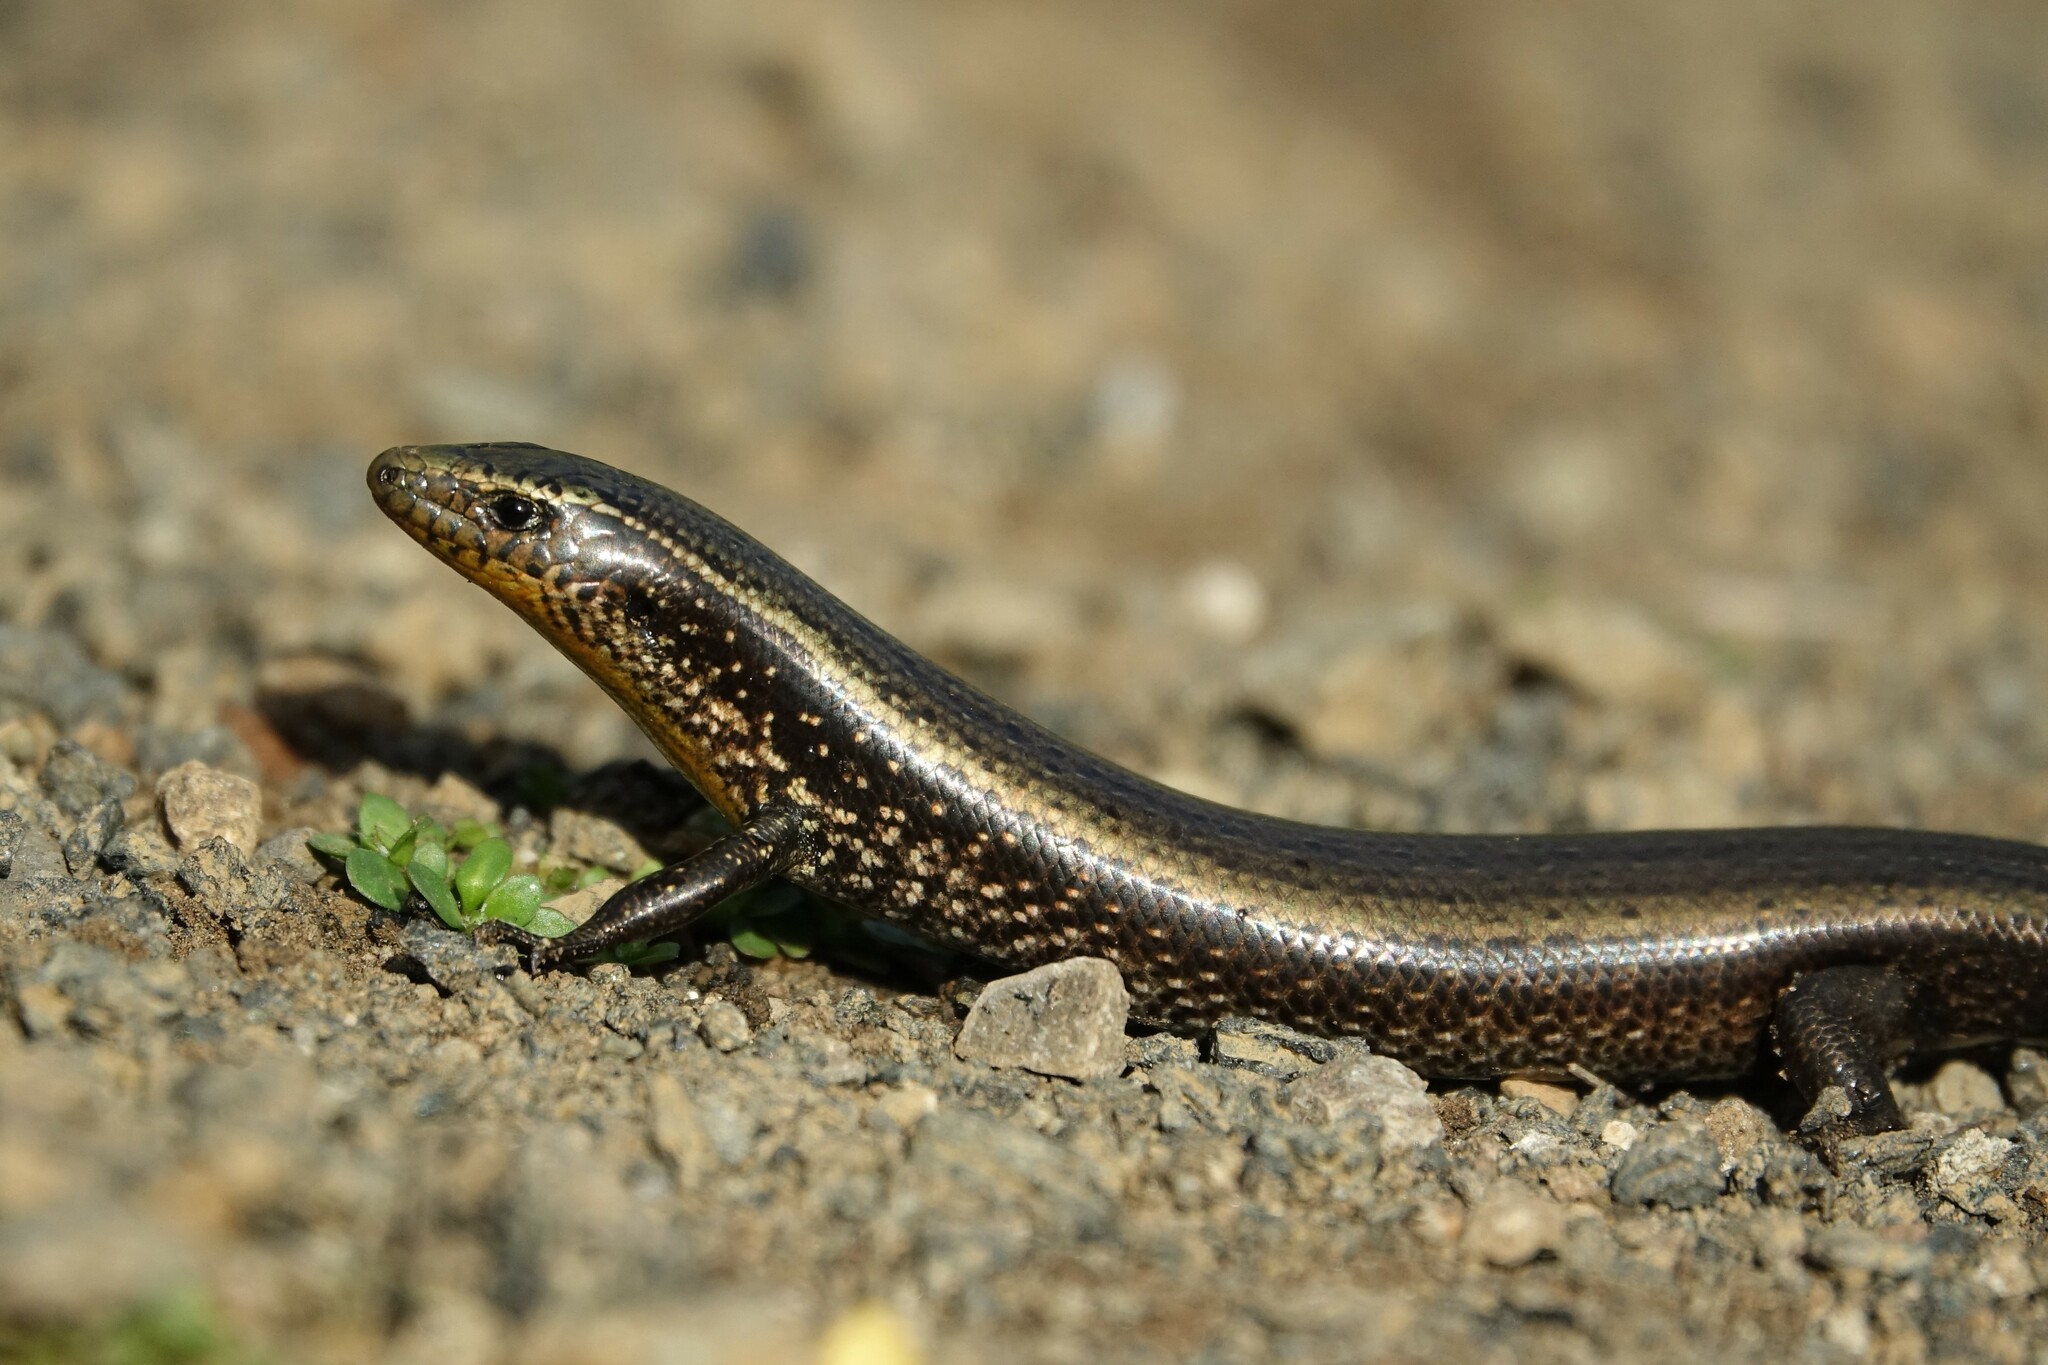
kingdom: Animalia
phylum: Chordata
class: Squamata
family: Scincidae
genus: Chalcides
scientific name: Chalcides sexlineatus
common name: Gran canaria skink
